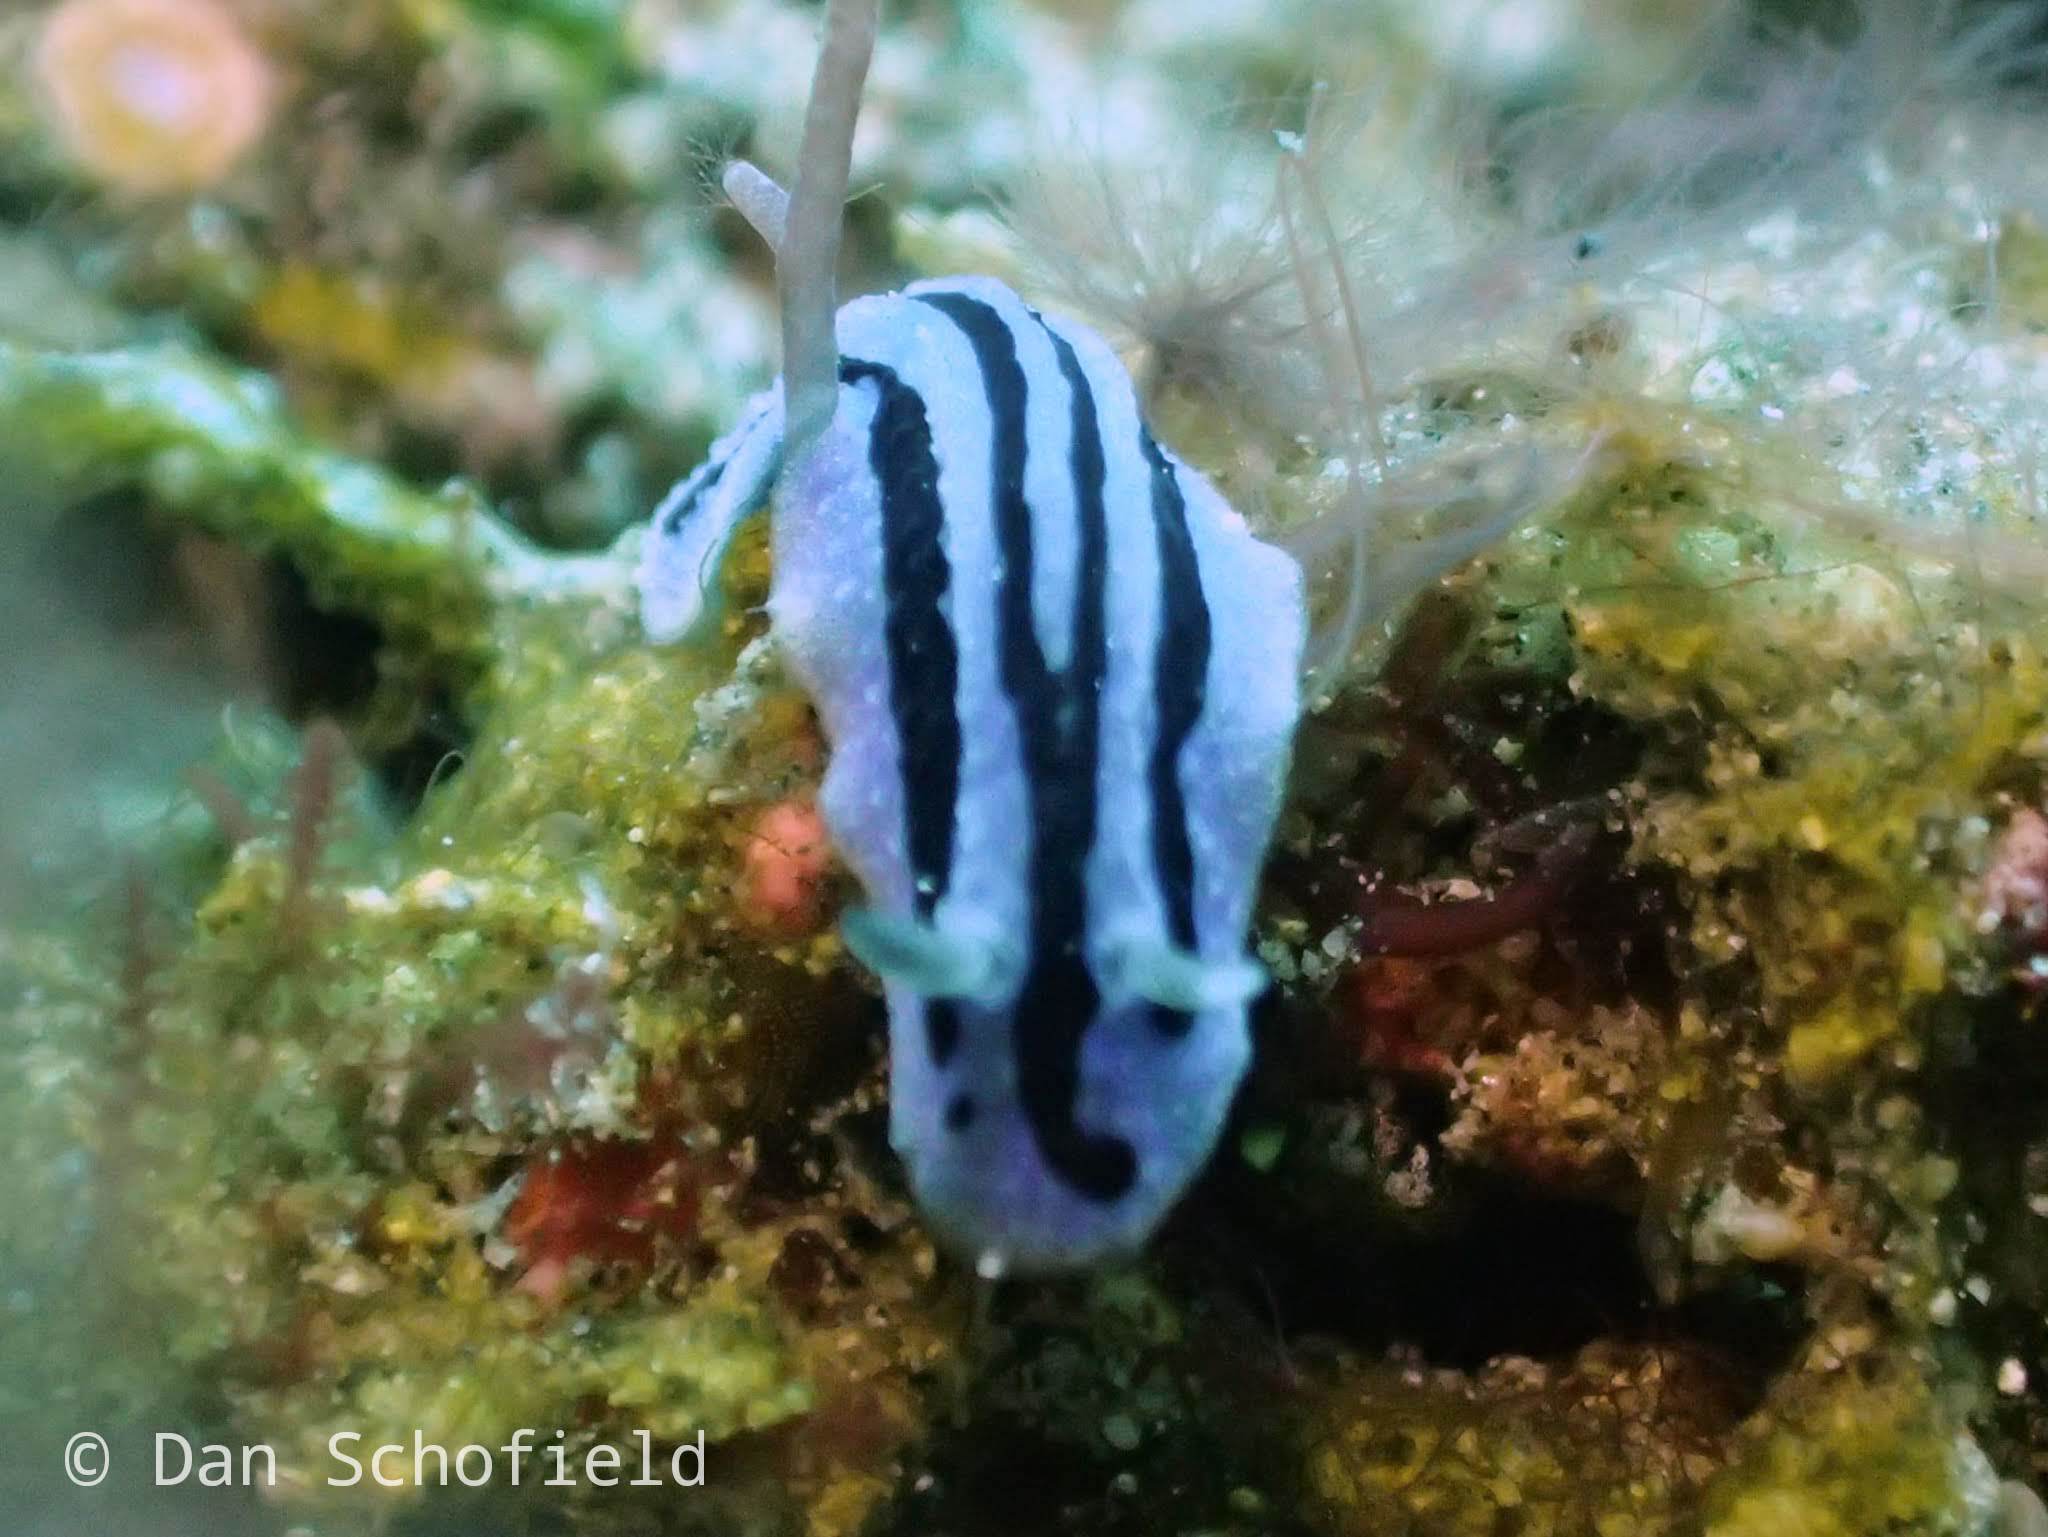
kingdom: Animalia
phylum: Mollusca
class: Gastropoda
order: Nudibranchia
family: Phyllidiidae
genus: Phyllidiopsis
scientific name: Phyllidiopsis annae
